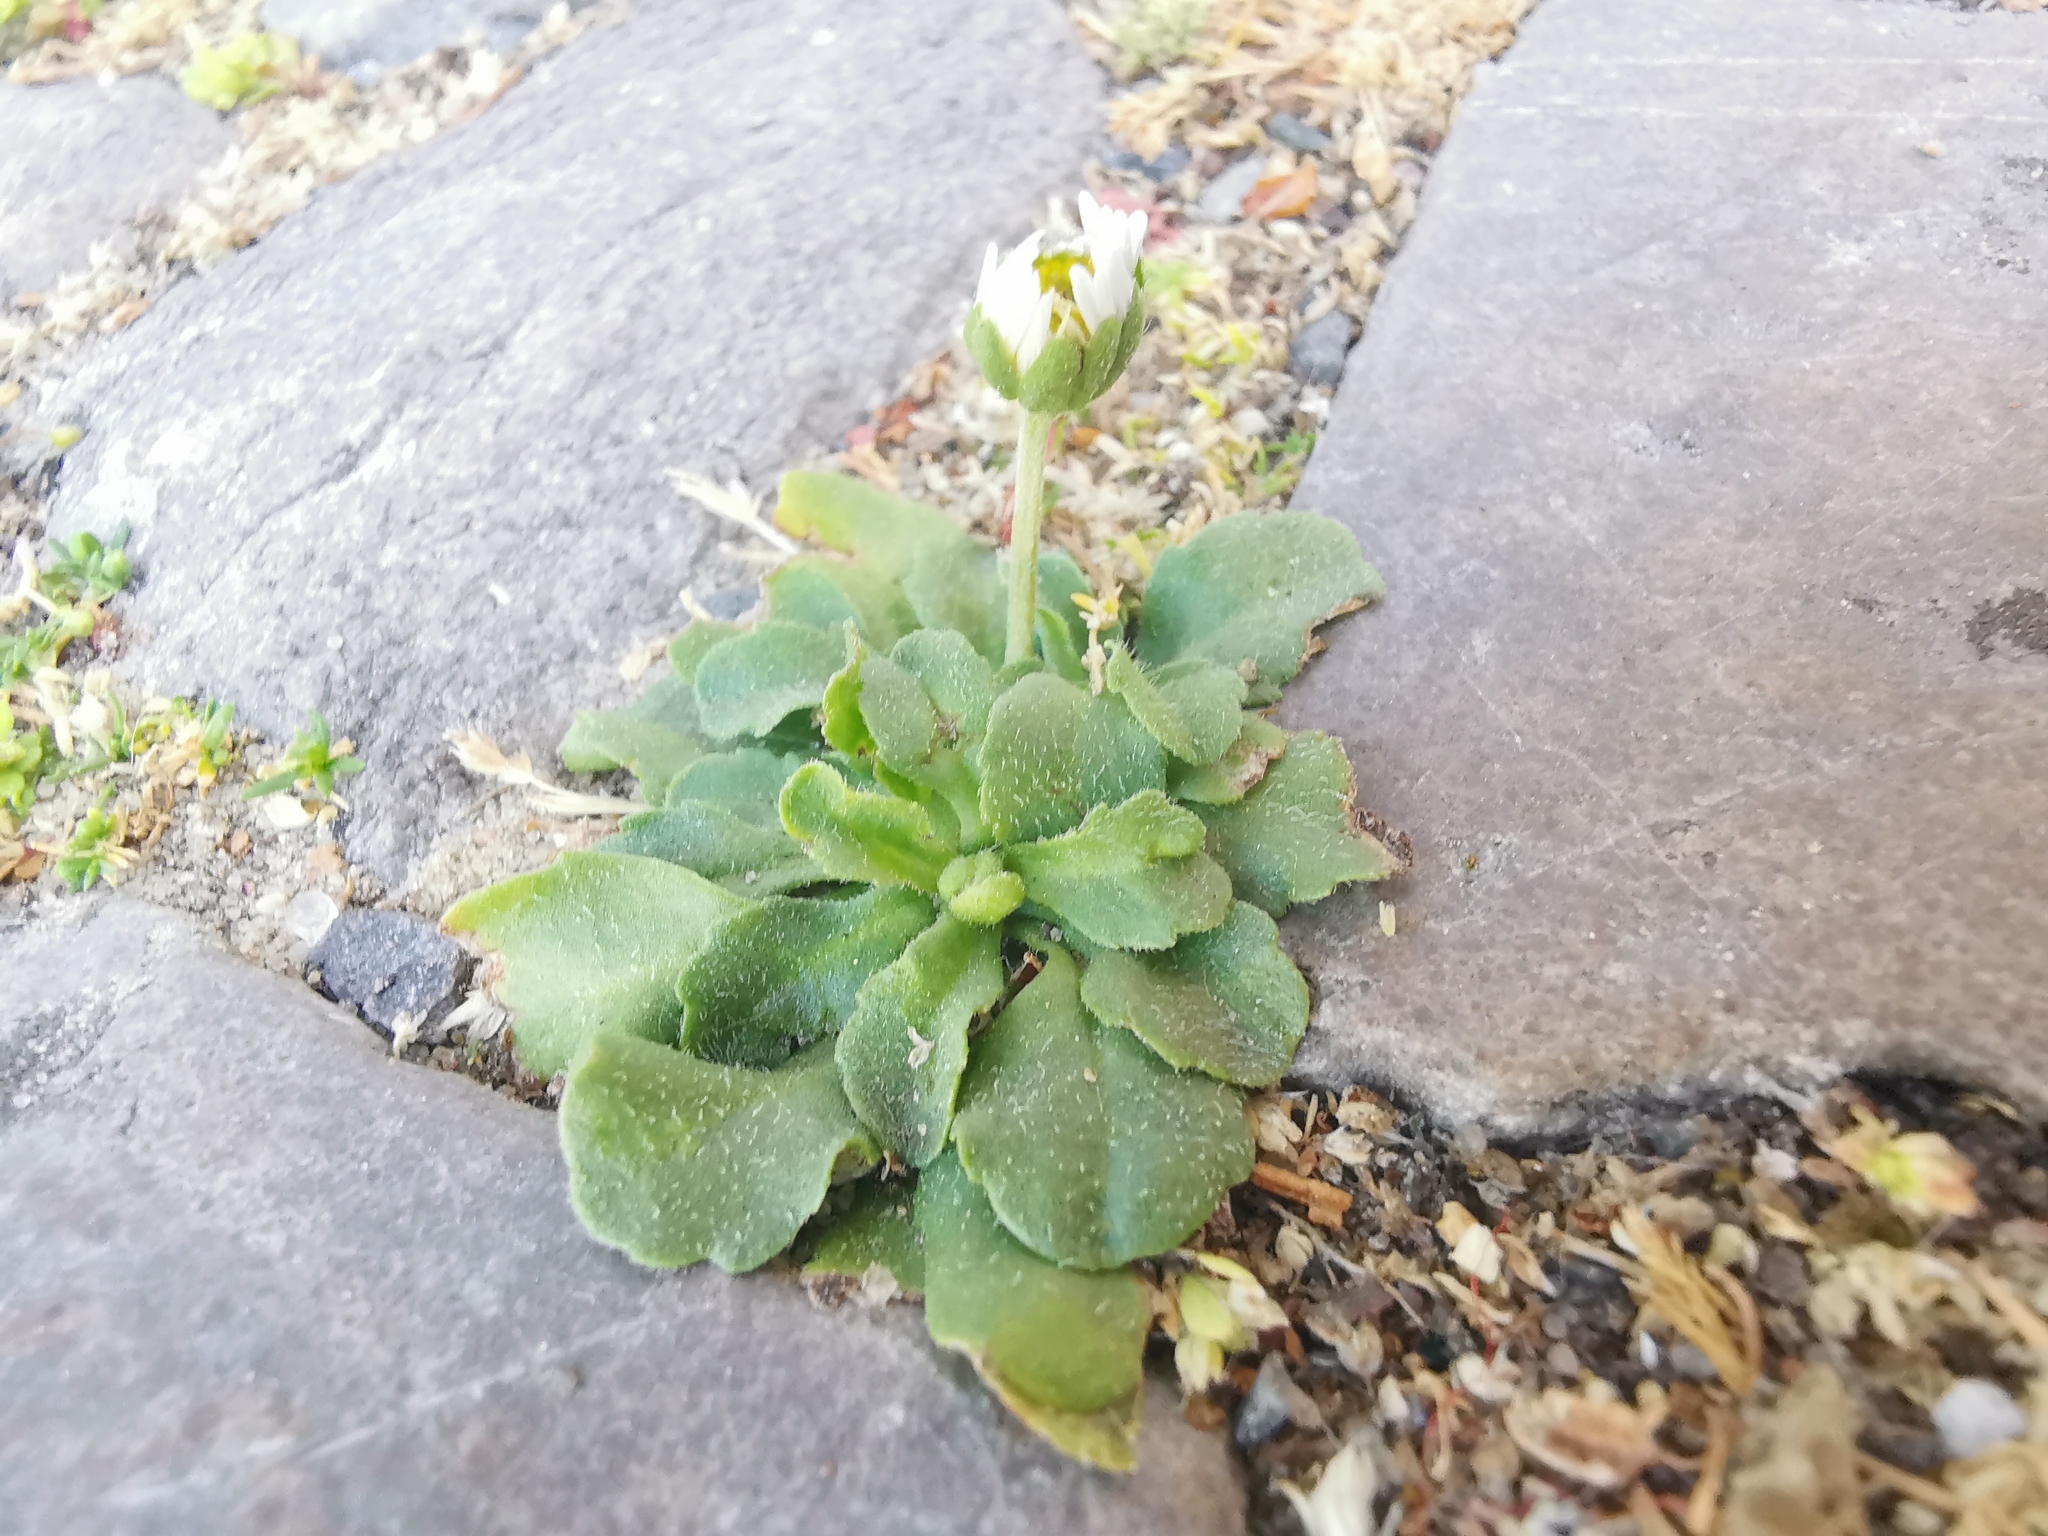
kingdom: Plantae
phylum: Tracheophyta
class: Magnoliopsida
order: Asterales
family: Asteraceae
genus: Bellis
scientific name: Bellis perennis
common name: Lawndaisy
